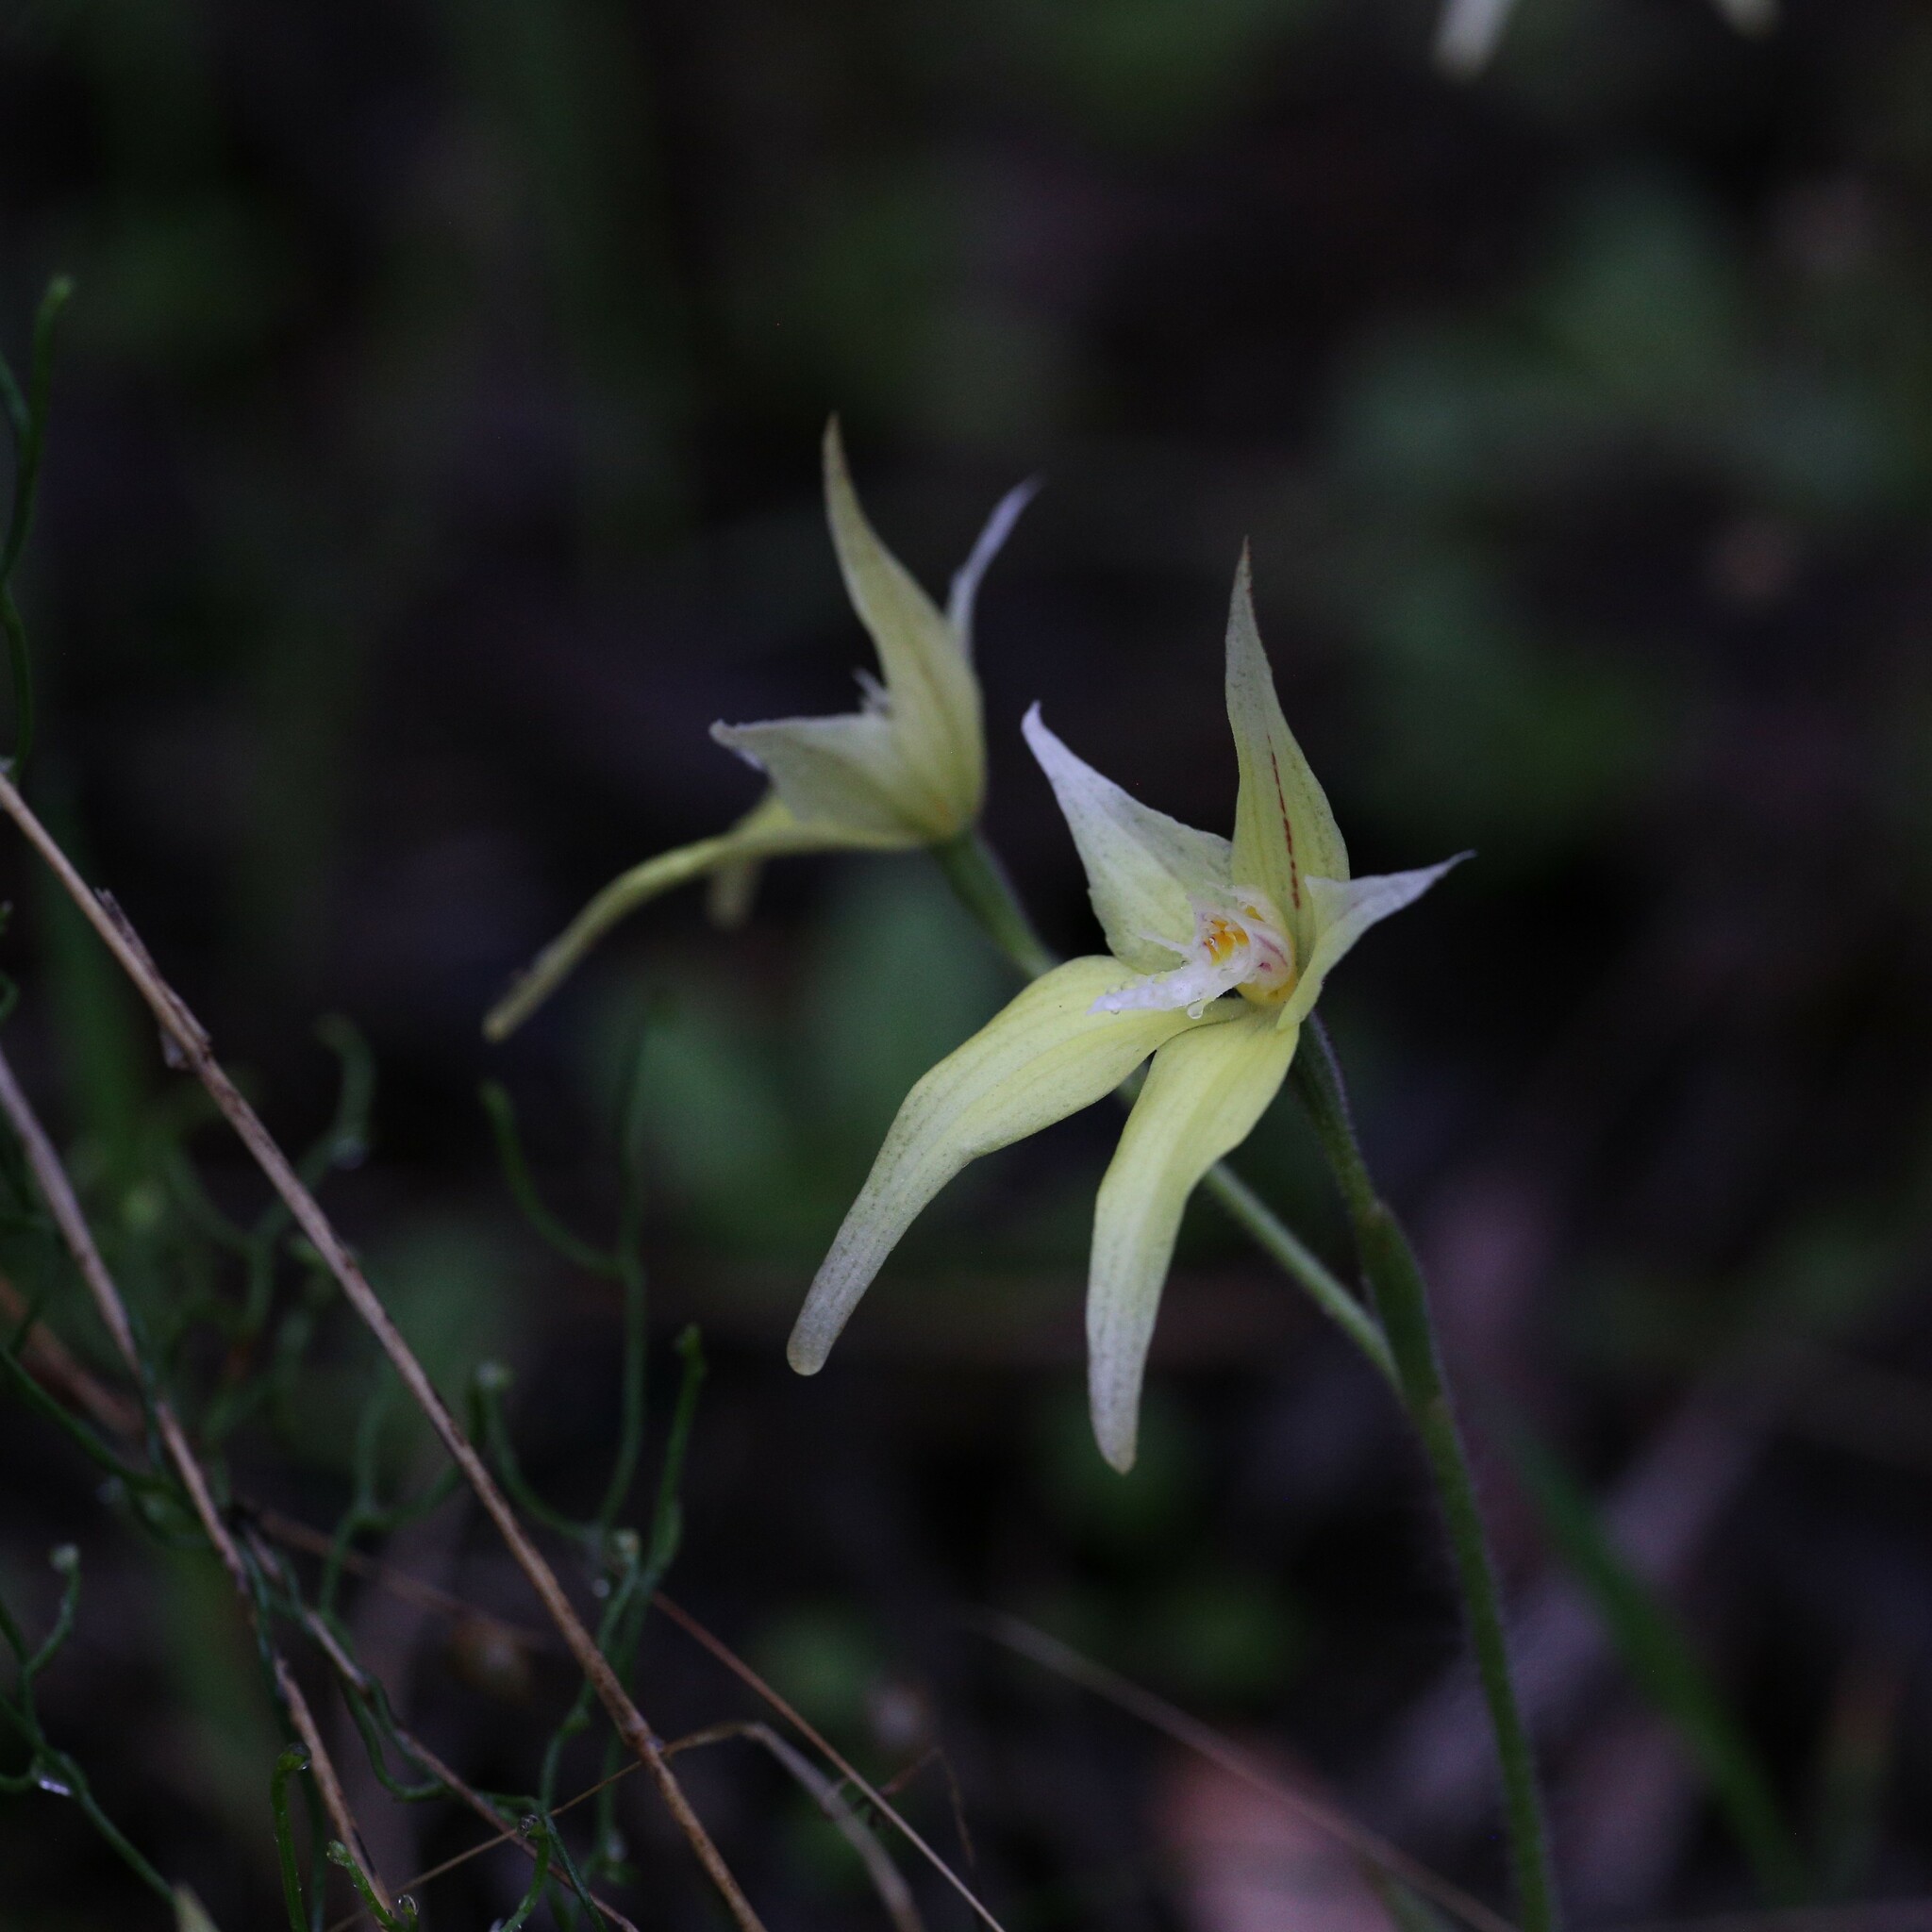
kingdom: Plantae
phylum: Tracheophyta
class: Liliopsida
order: Asparagales
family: Orchidaceae
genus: Caladenia
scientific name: Caladenia flava
